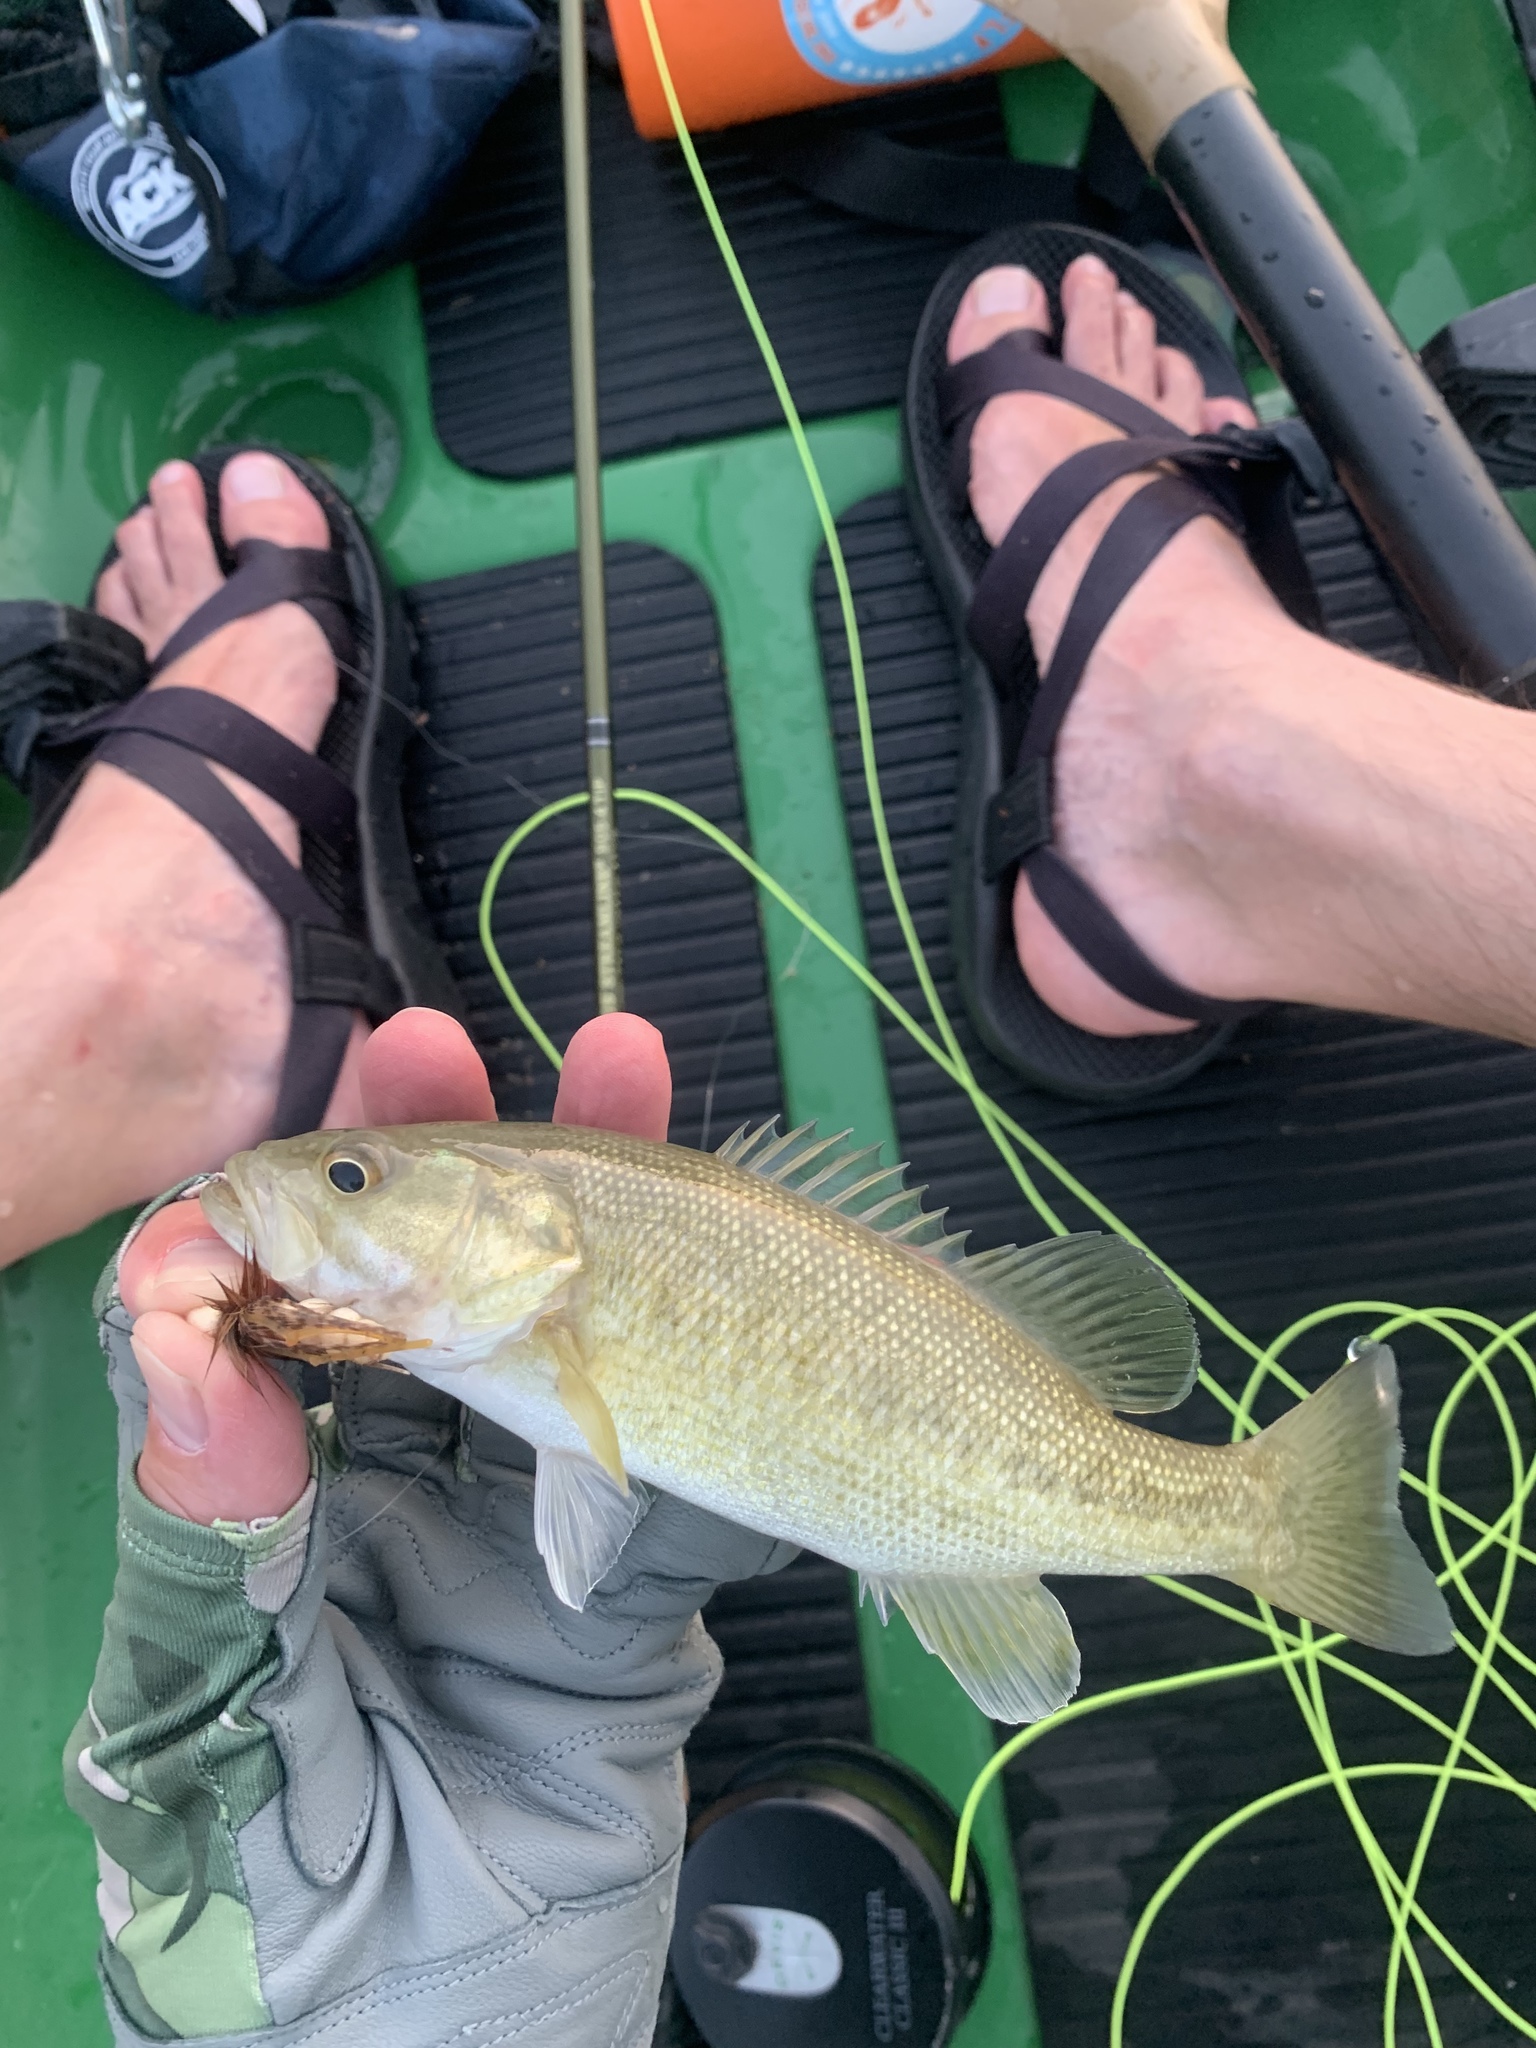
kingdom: Animalia
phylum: Chordata
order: Perciformes
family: Centrarchidae
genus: Micropterus
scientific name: Micropterus treculii
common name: Guadalupe bass
